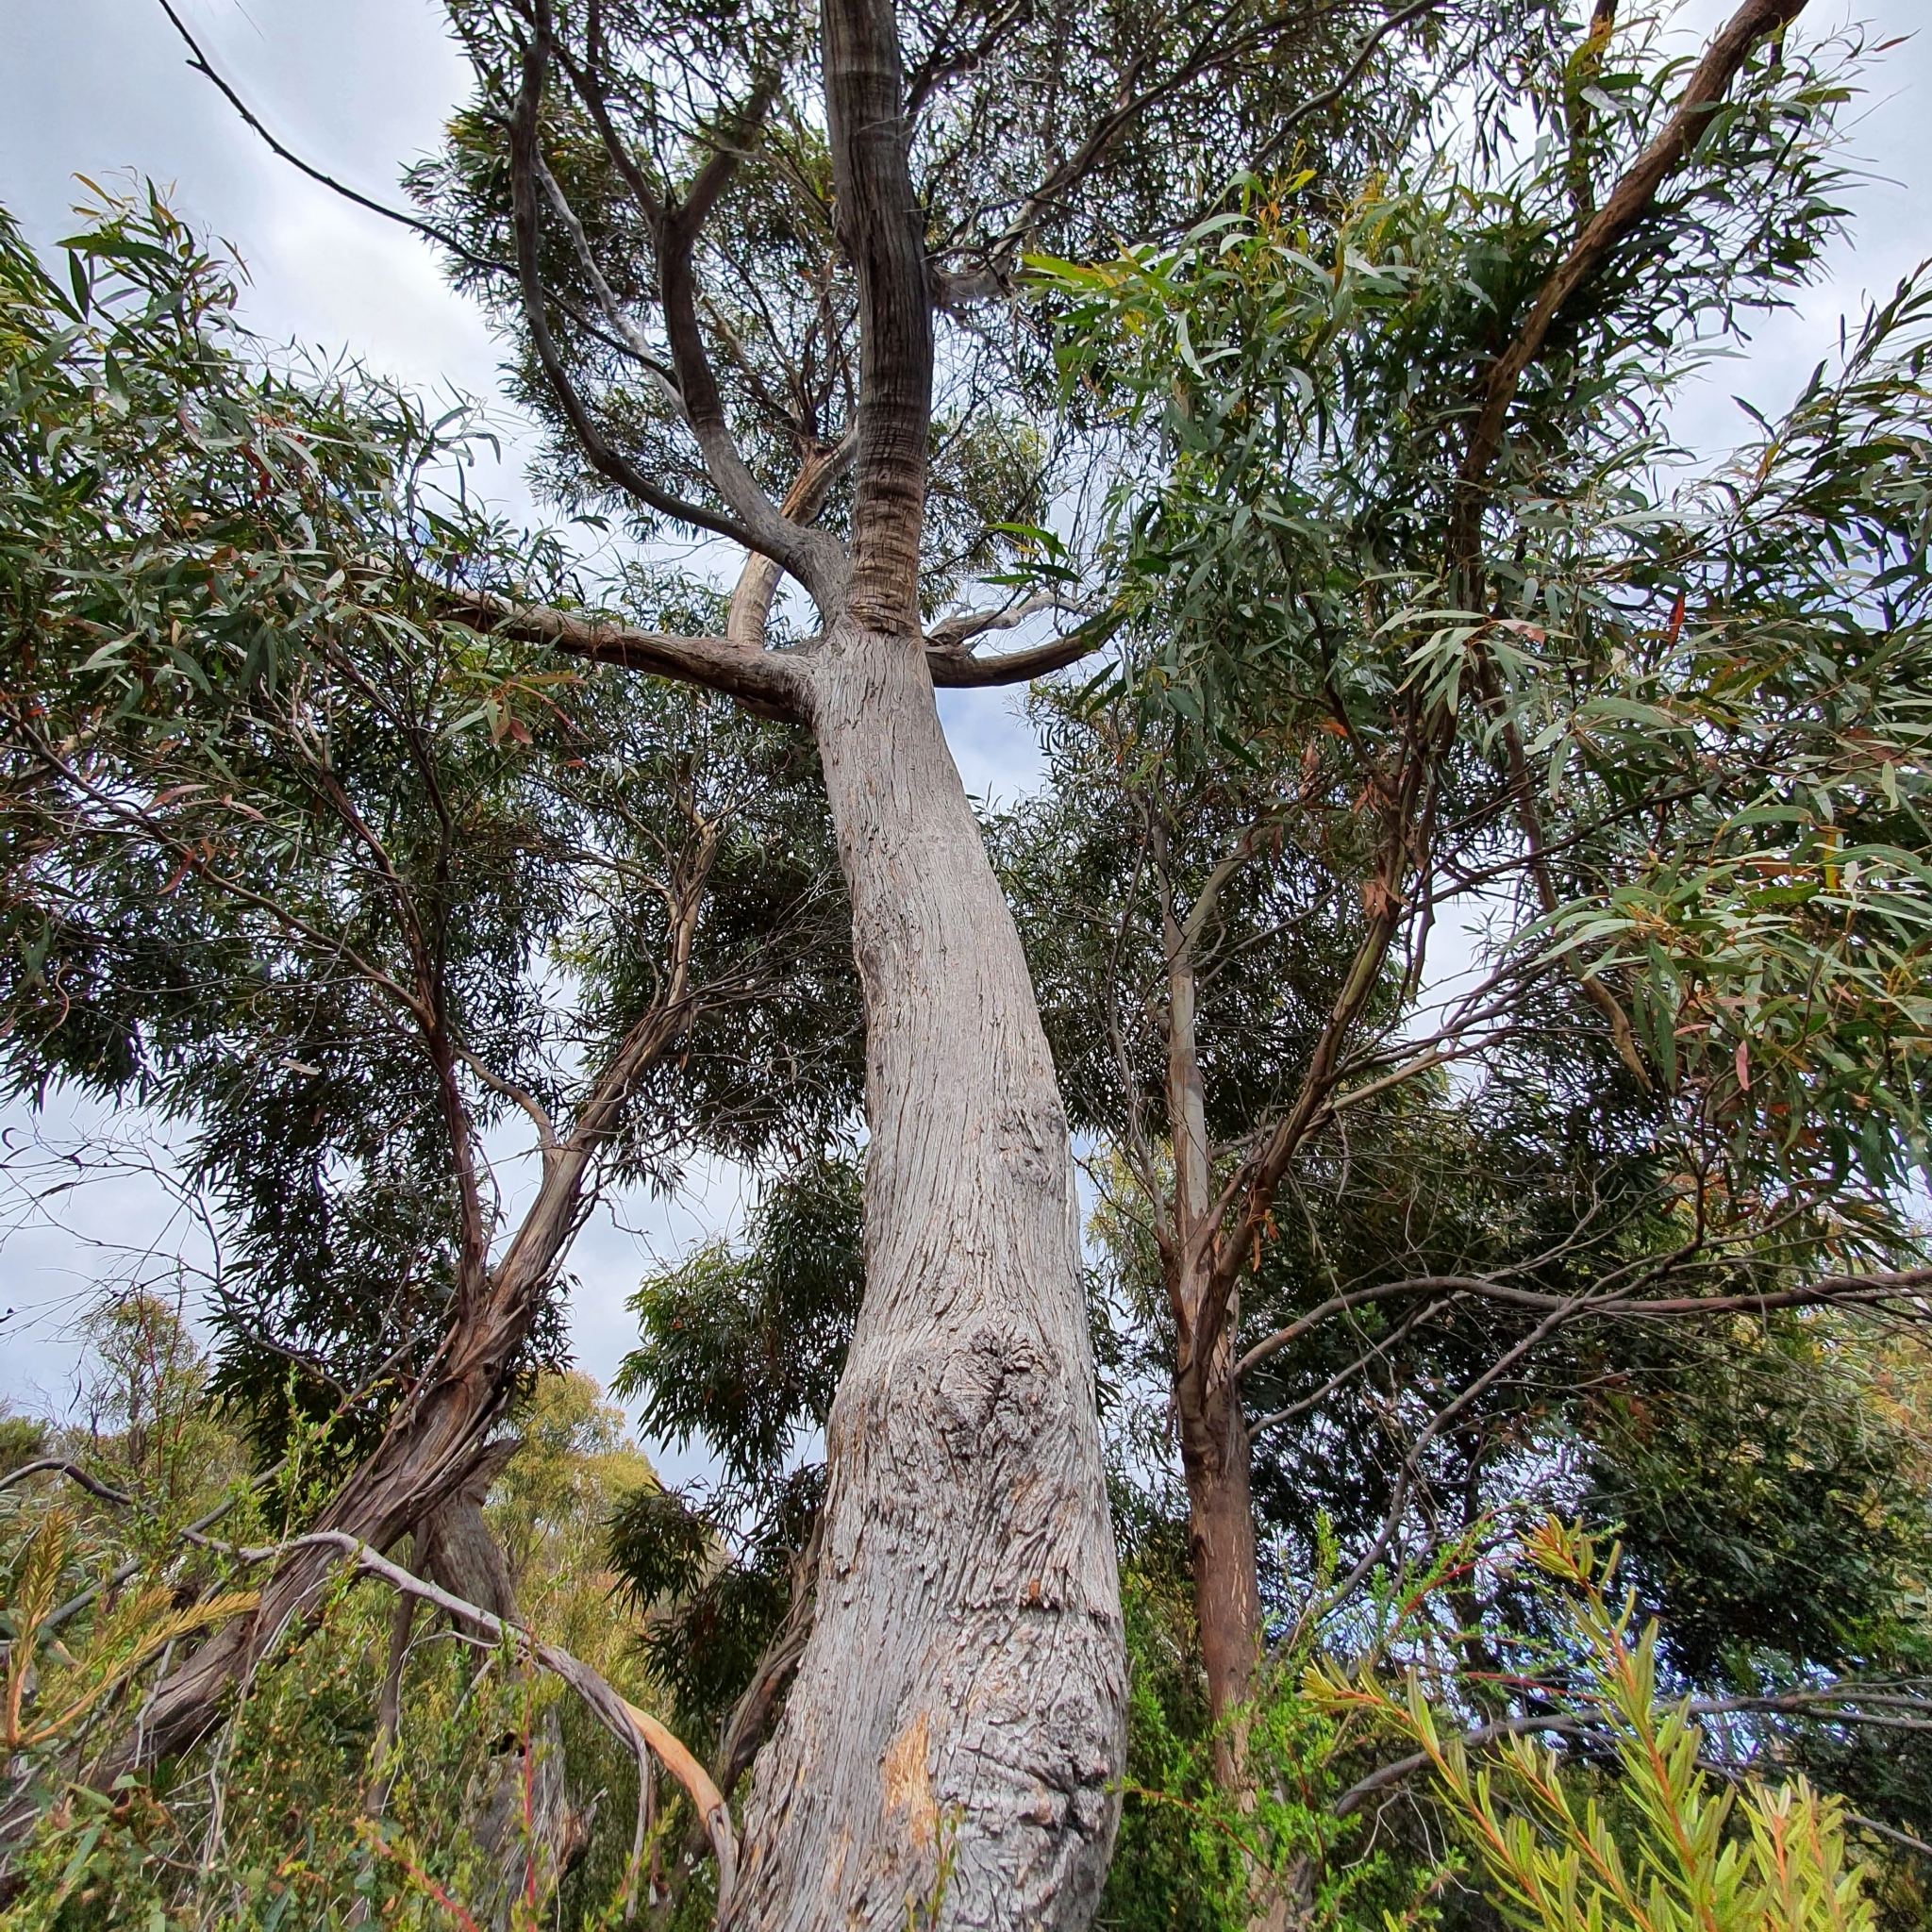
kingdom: Plantae
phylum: Tracheophyta
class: Magnoliopsida
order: Myrtales
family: Myrtaceae
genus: Eucalyptus
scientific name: Eucalyptus amygdalina
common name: Black peppermint
